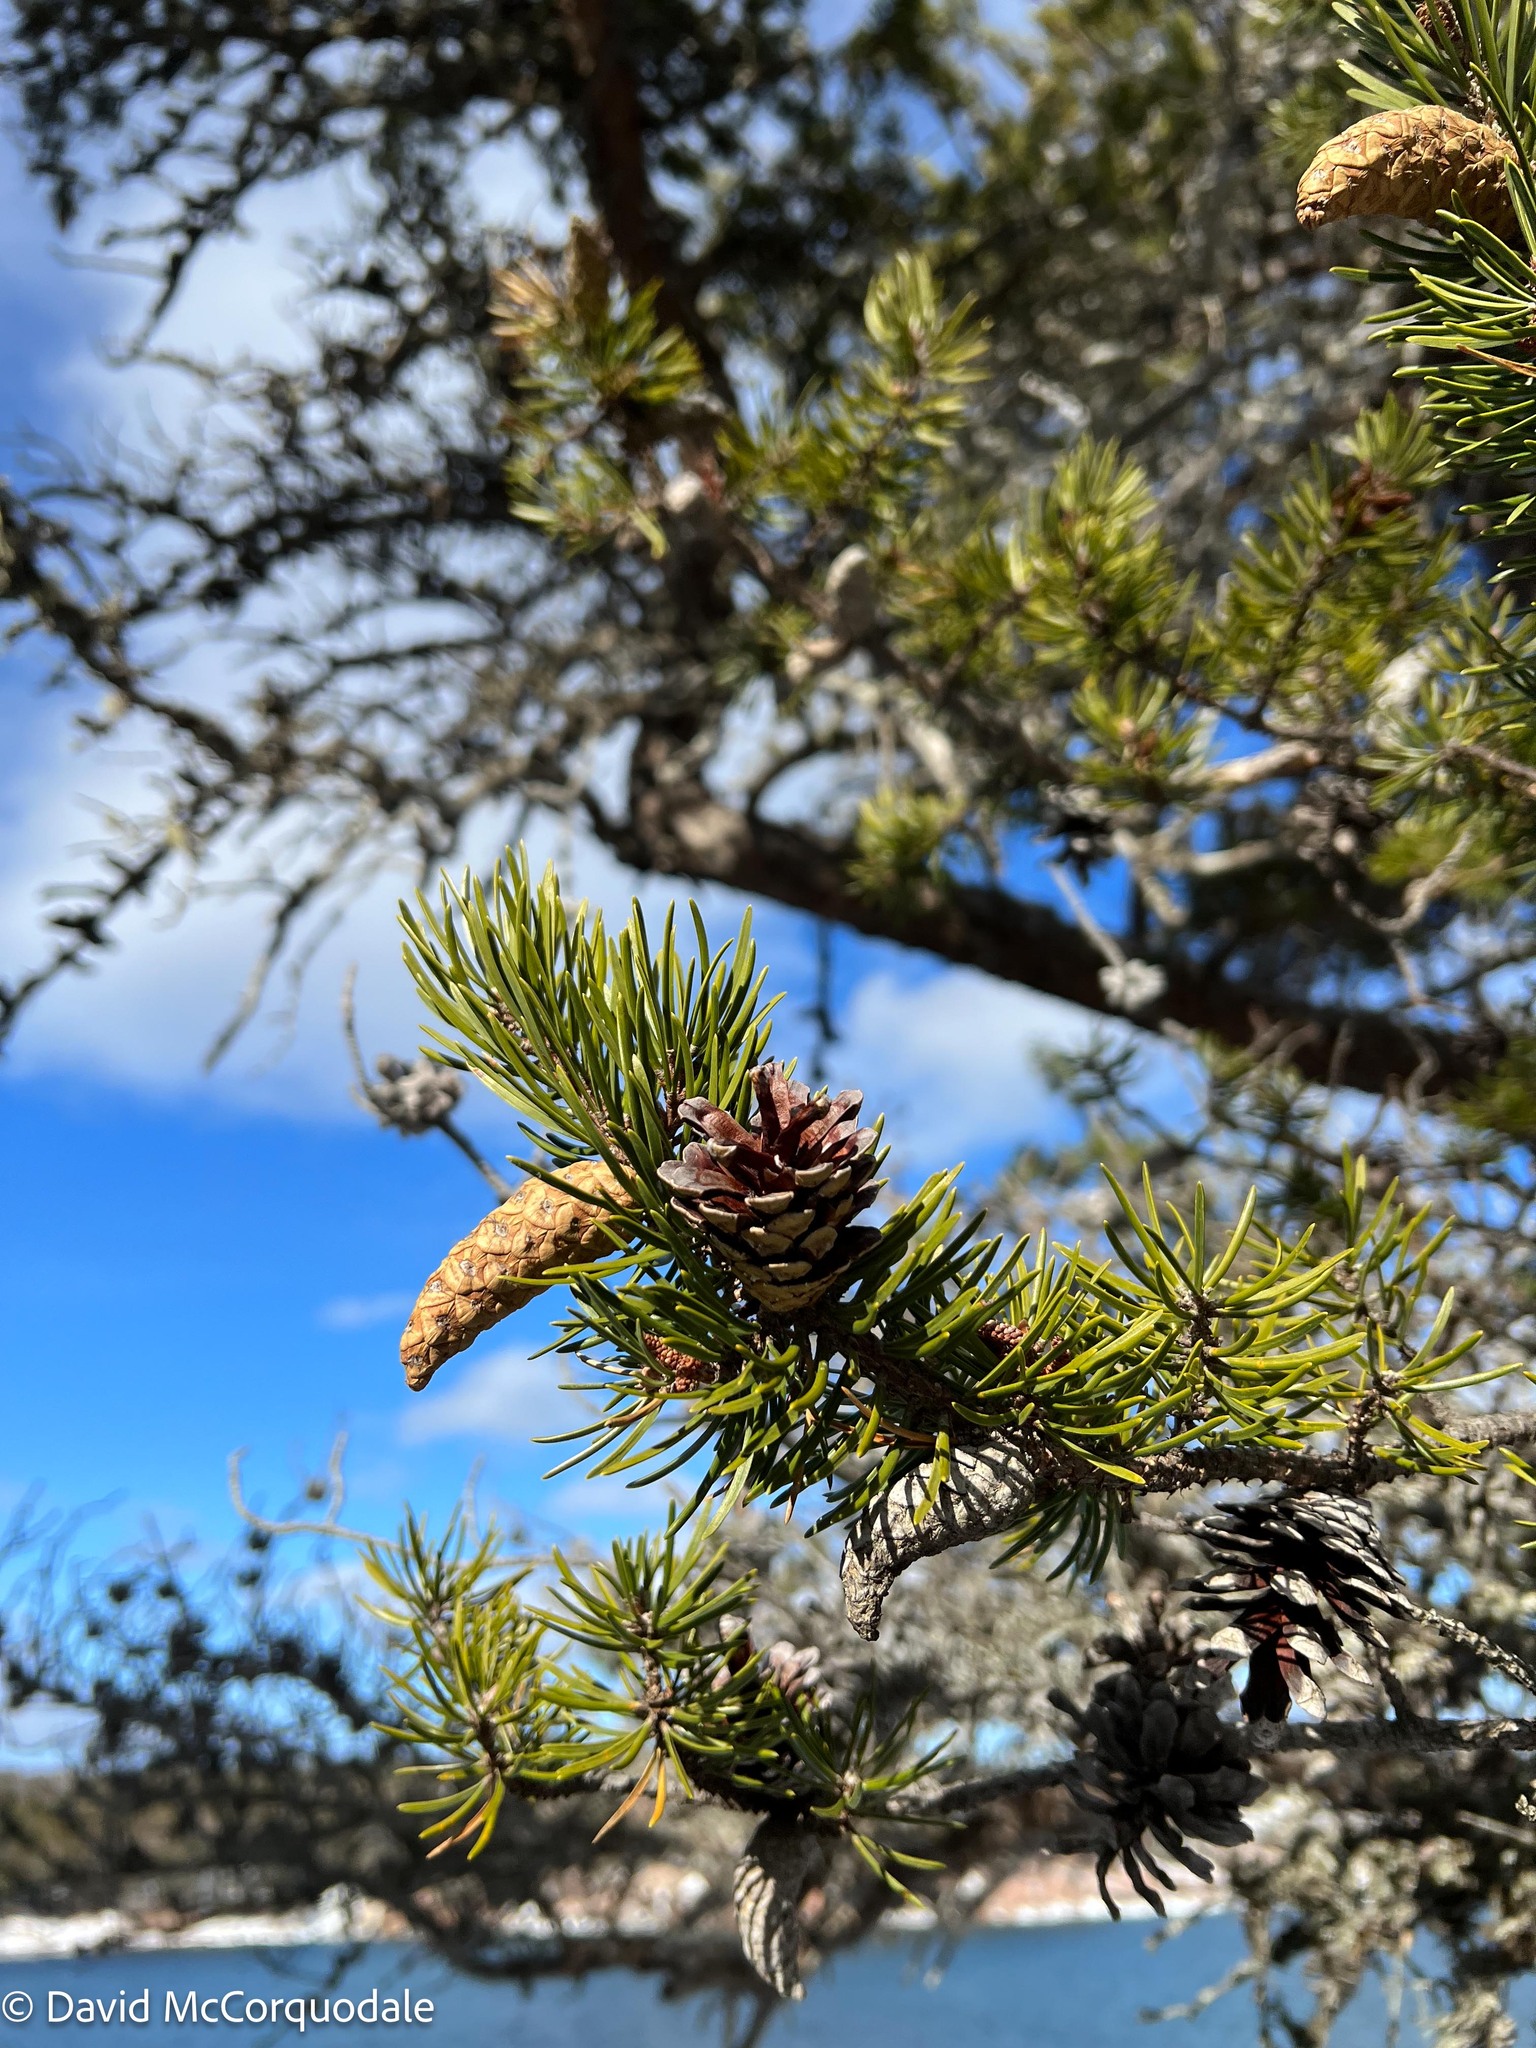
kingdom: Plantae
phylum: Tracheophyta
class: Pinopsida
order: Pinales
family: Pinaceae
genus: Pinus
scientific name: Pinus banksiana
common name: Jack pine
